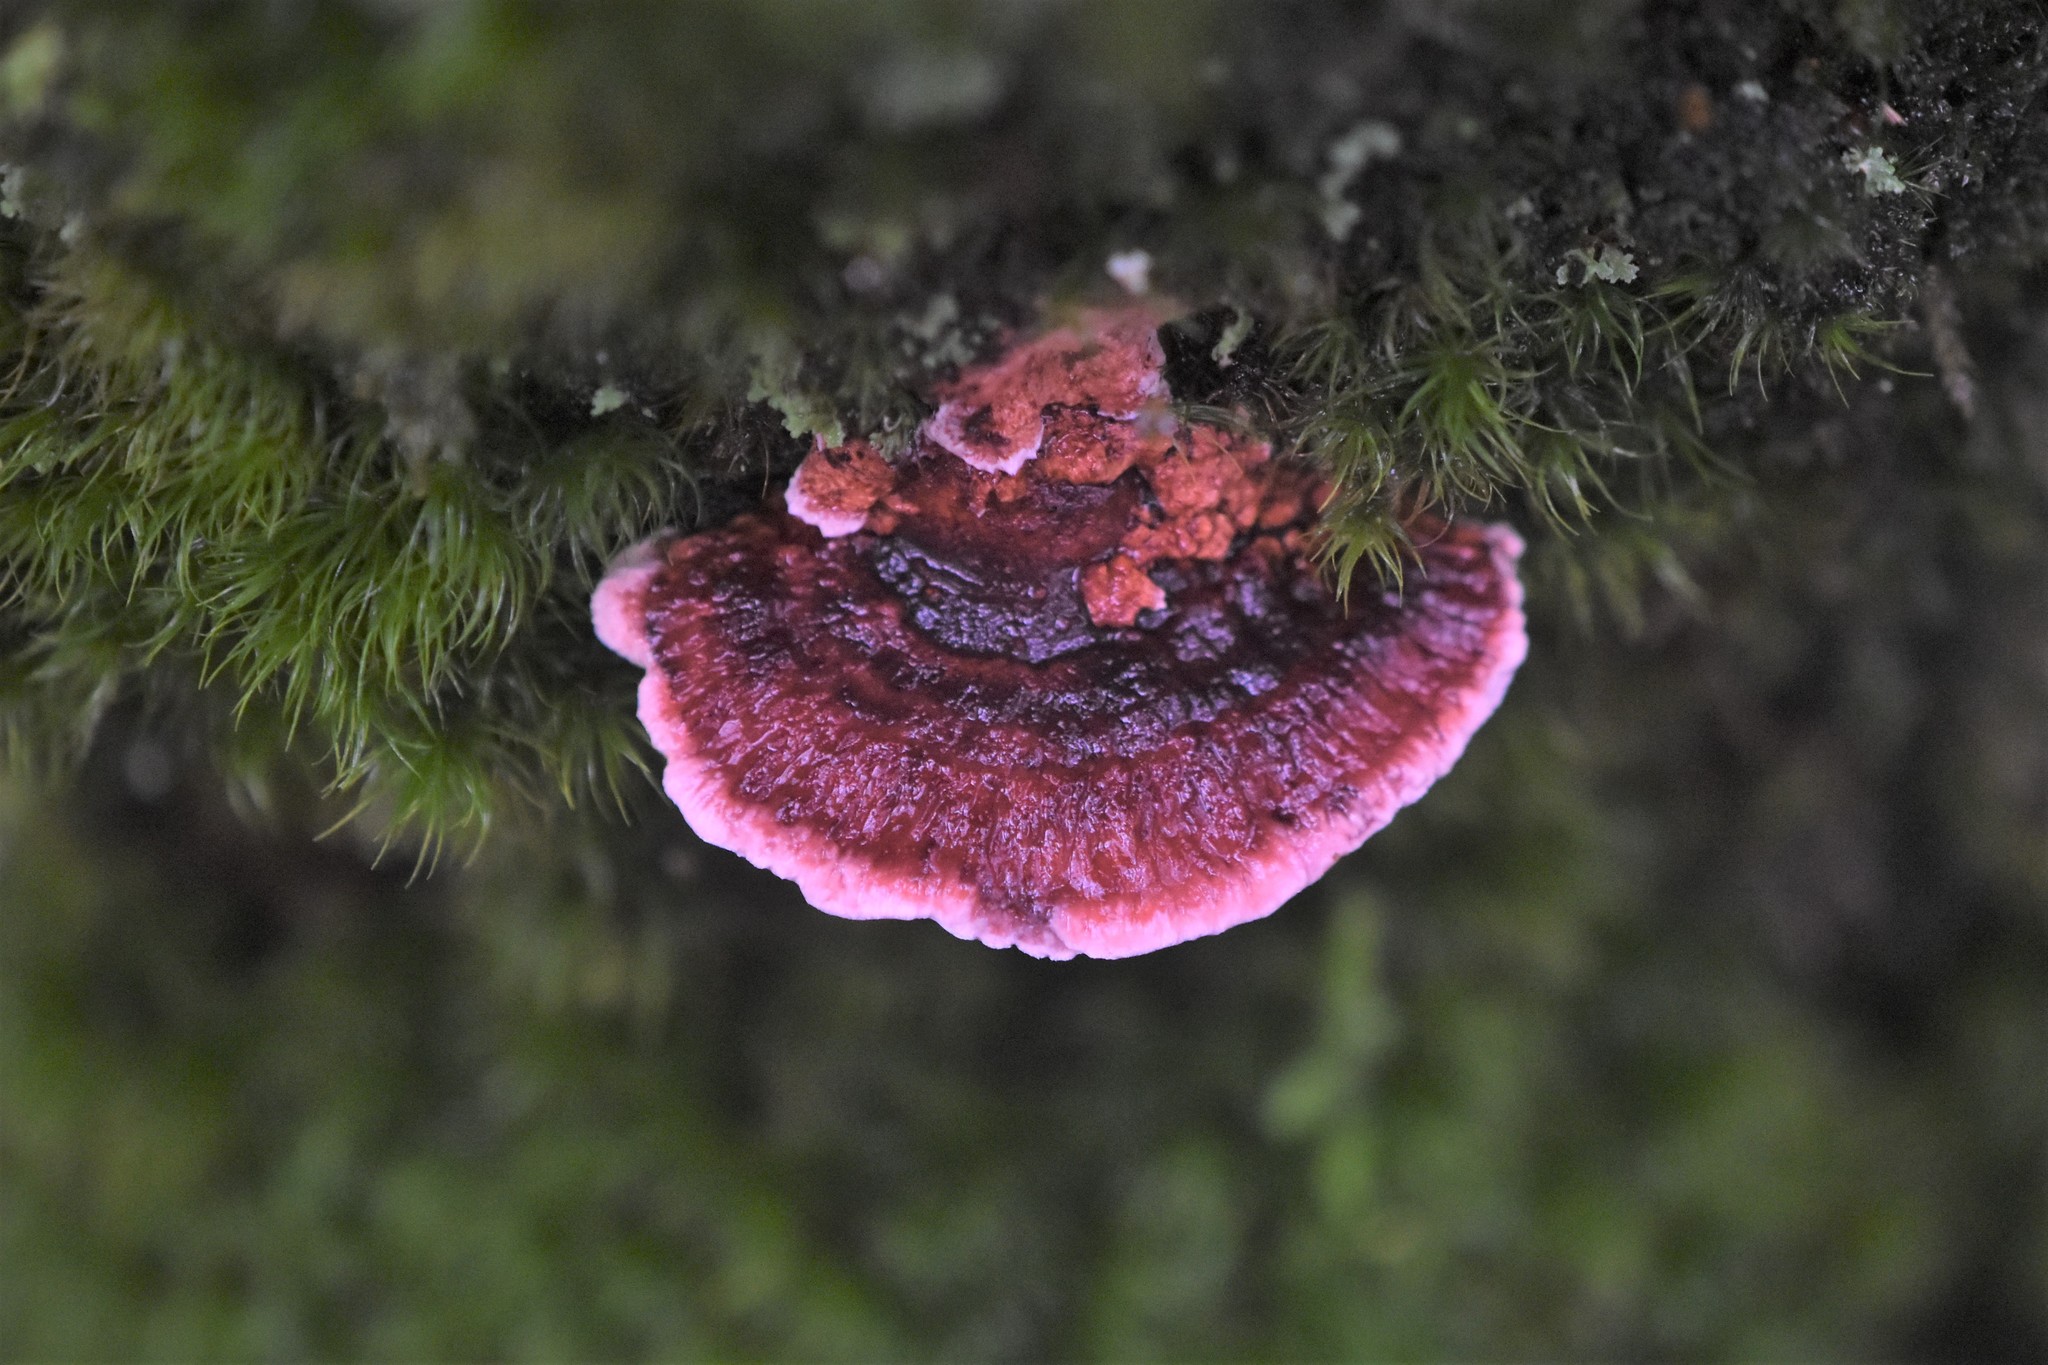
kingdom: Fungi
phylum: Basidiomycota
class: Agaricomycetes
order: Polyporales
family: Fomitopsidaceae
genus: Rhodofomes
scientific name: Rhodofomes cajanderi
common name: Rosy conk
